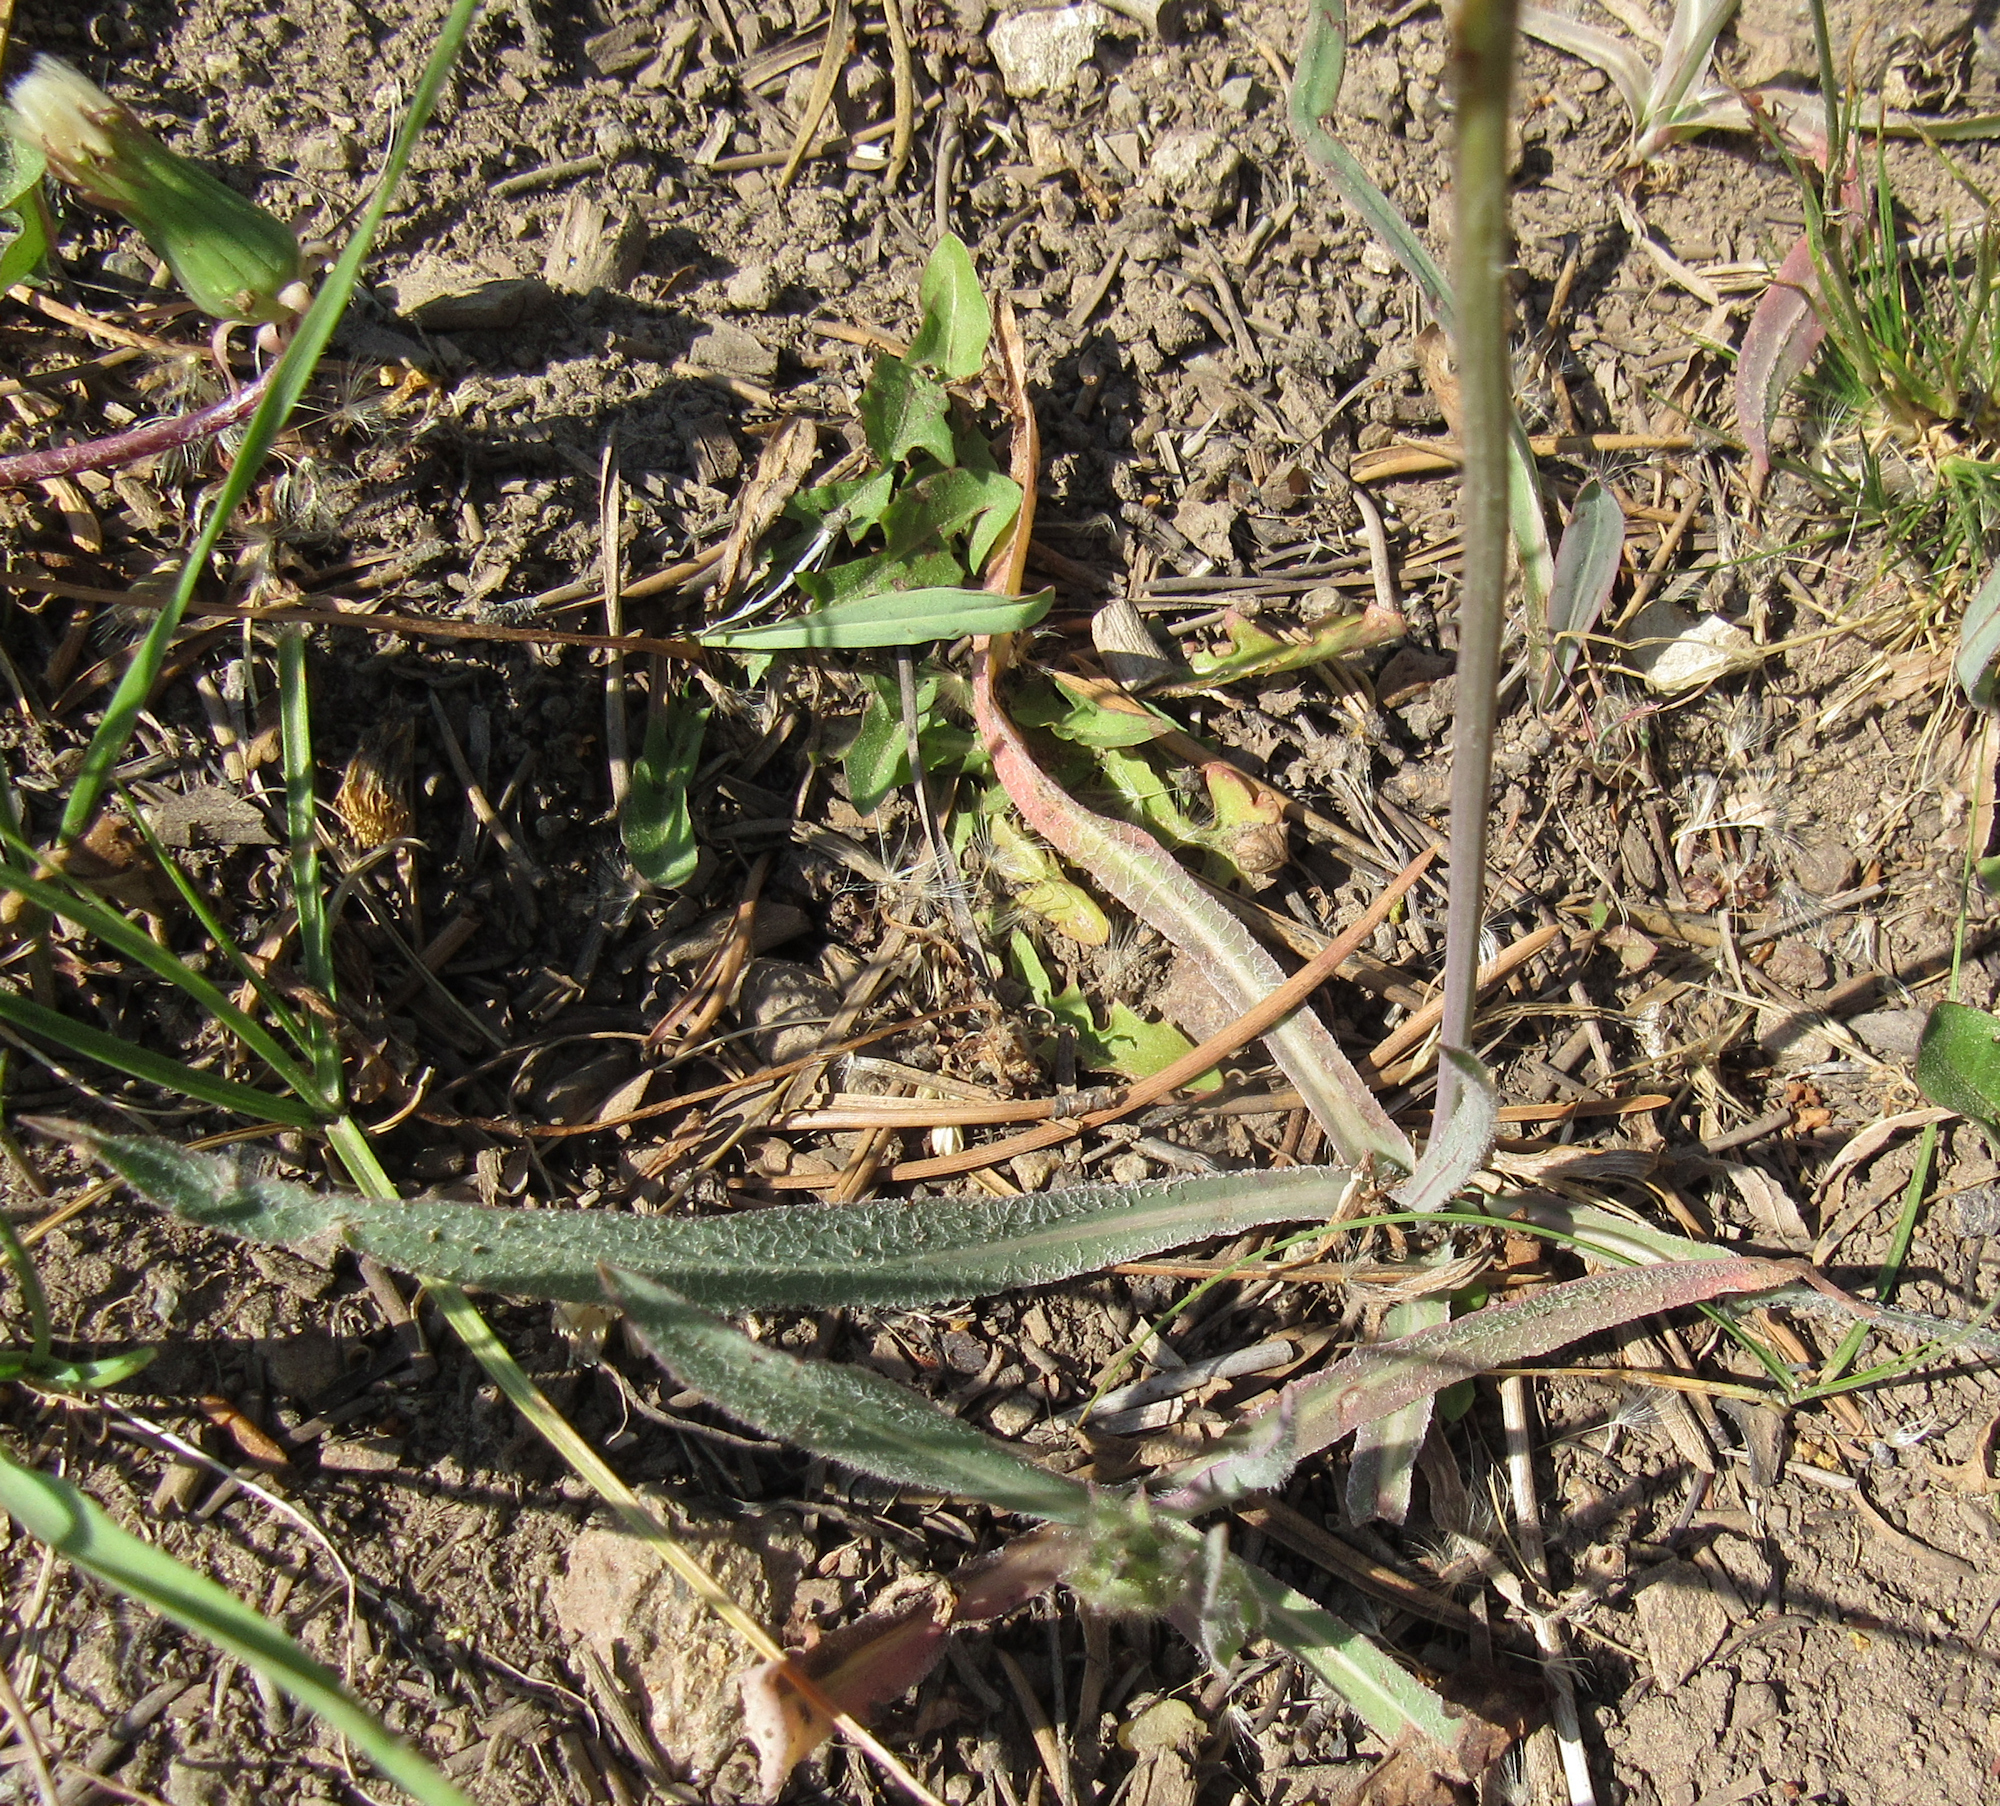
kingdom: Plantae
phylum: Tracheophyta
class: Magnoliopsida
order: Asterales
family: Asteraceae
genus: Agoseris
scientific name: Agoseris aurantiaca
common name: Mountain agoseris
